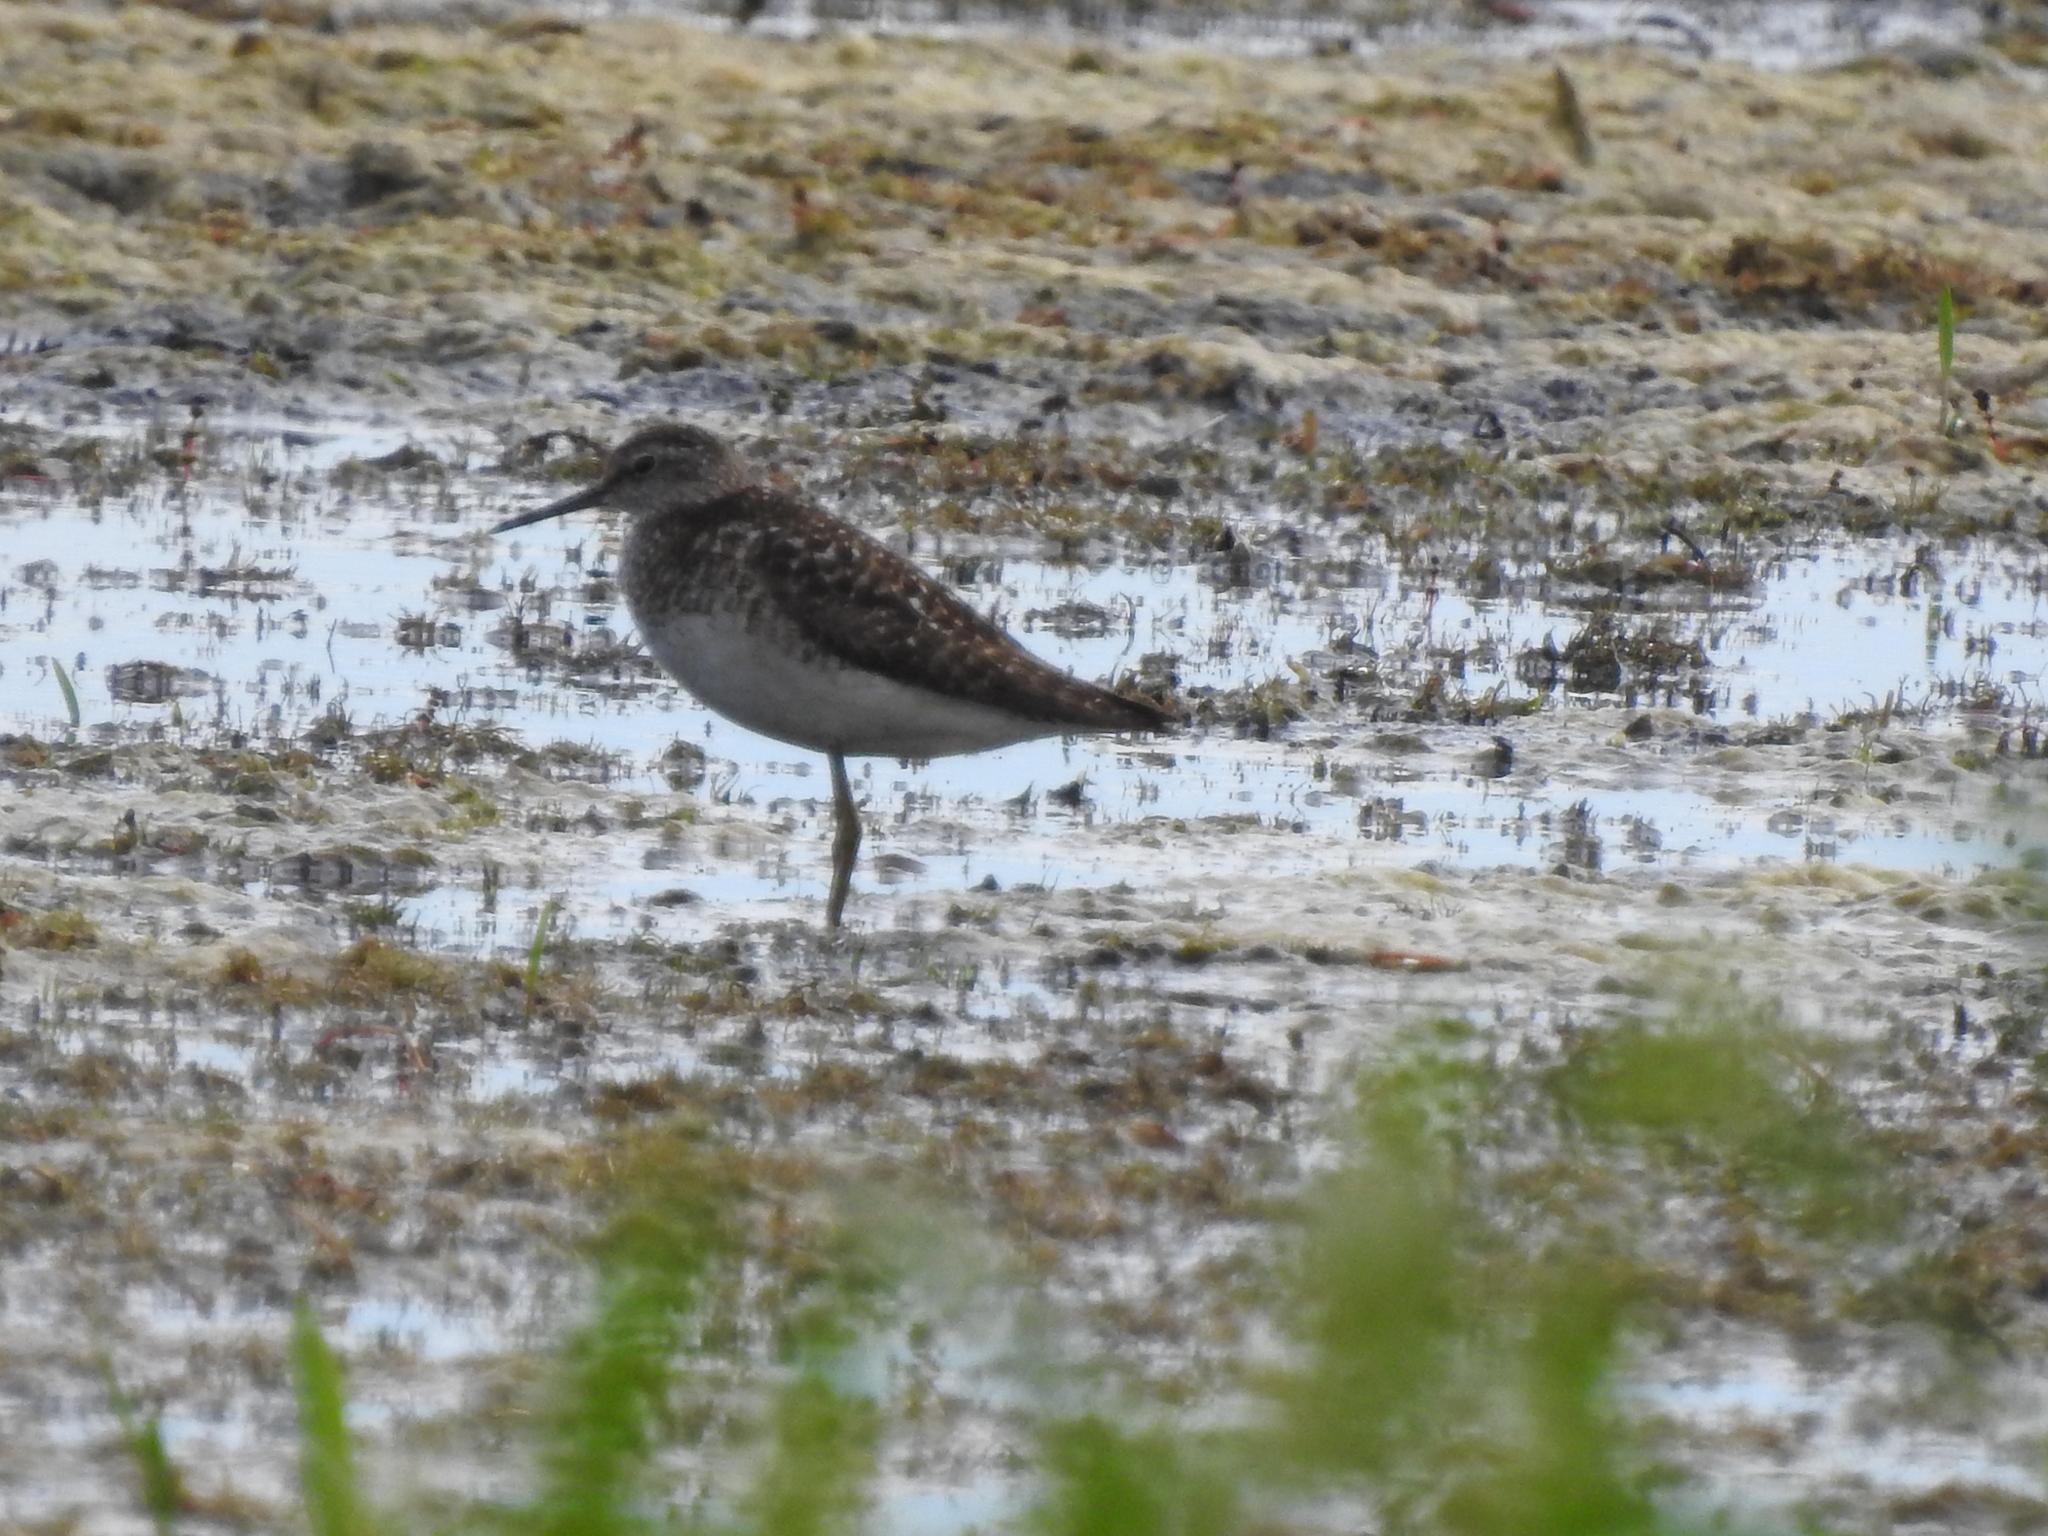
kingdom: Animalia
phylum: Chordata
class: Aves
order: Charadriiformes
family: Scolopacidae
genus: Tringa
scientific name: Tringa glareola
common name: Wood sandpiper
